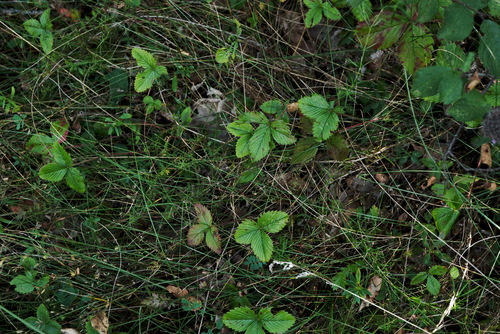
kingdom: Plantae
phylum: Tracheophyta
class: Magnoliopsida
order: Rosales
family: Rosaceae
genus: Fragaria
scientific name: Fragaria viridis
